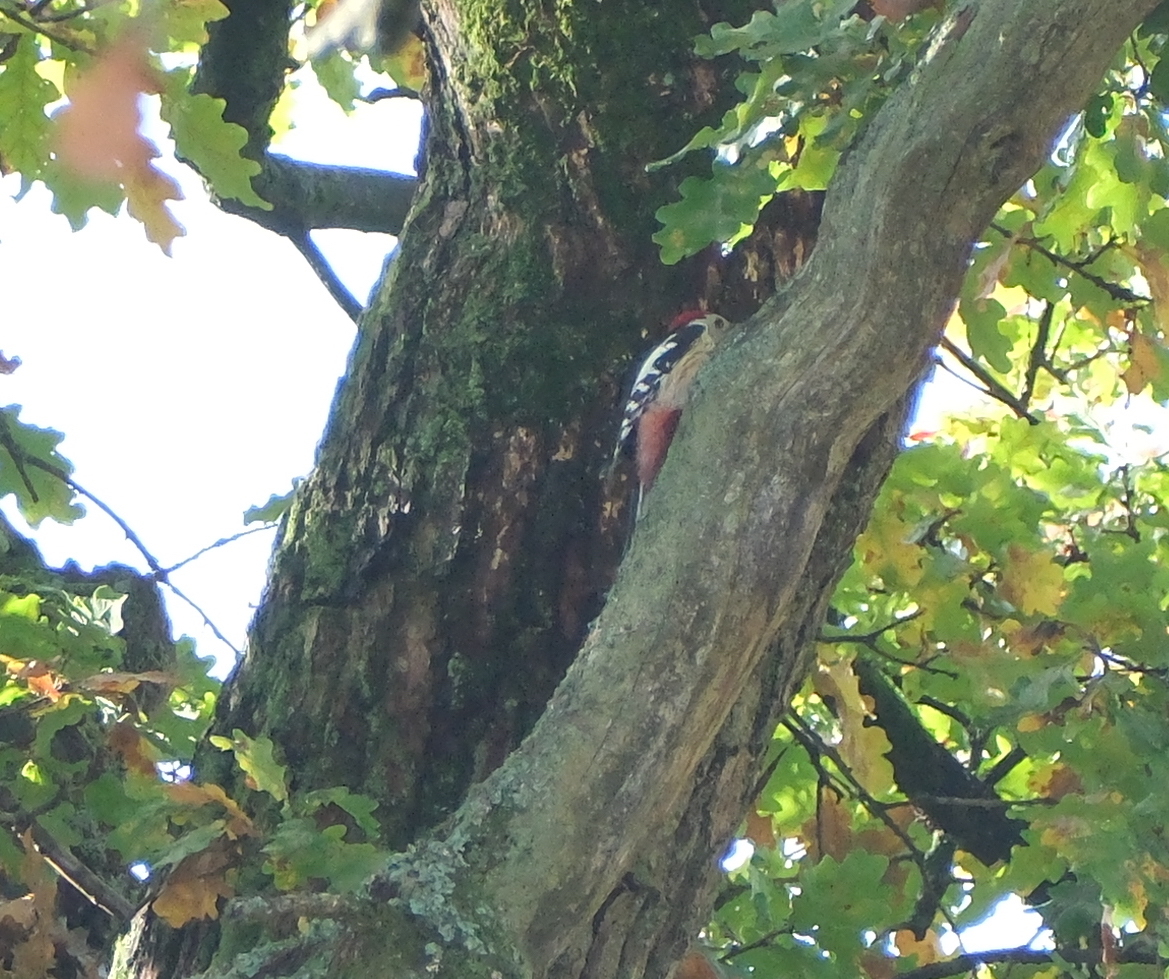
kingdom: Animalia
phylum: Chordata
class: Aves
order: Piciformes
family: Picidae
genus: Dendrocoptes
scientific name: Dendrocoptes medius
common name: Middle spotted woodpecker
